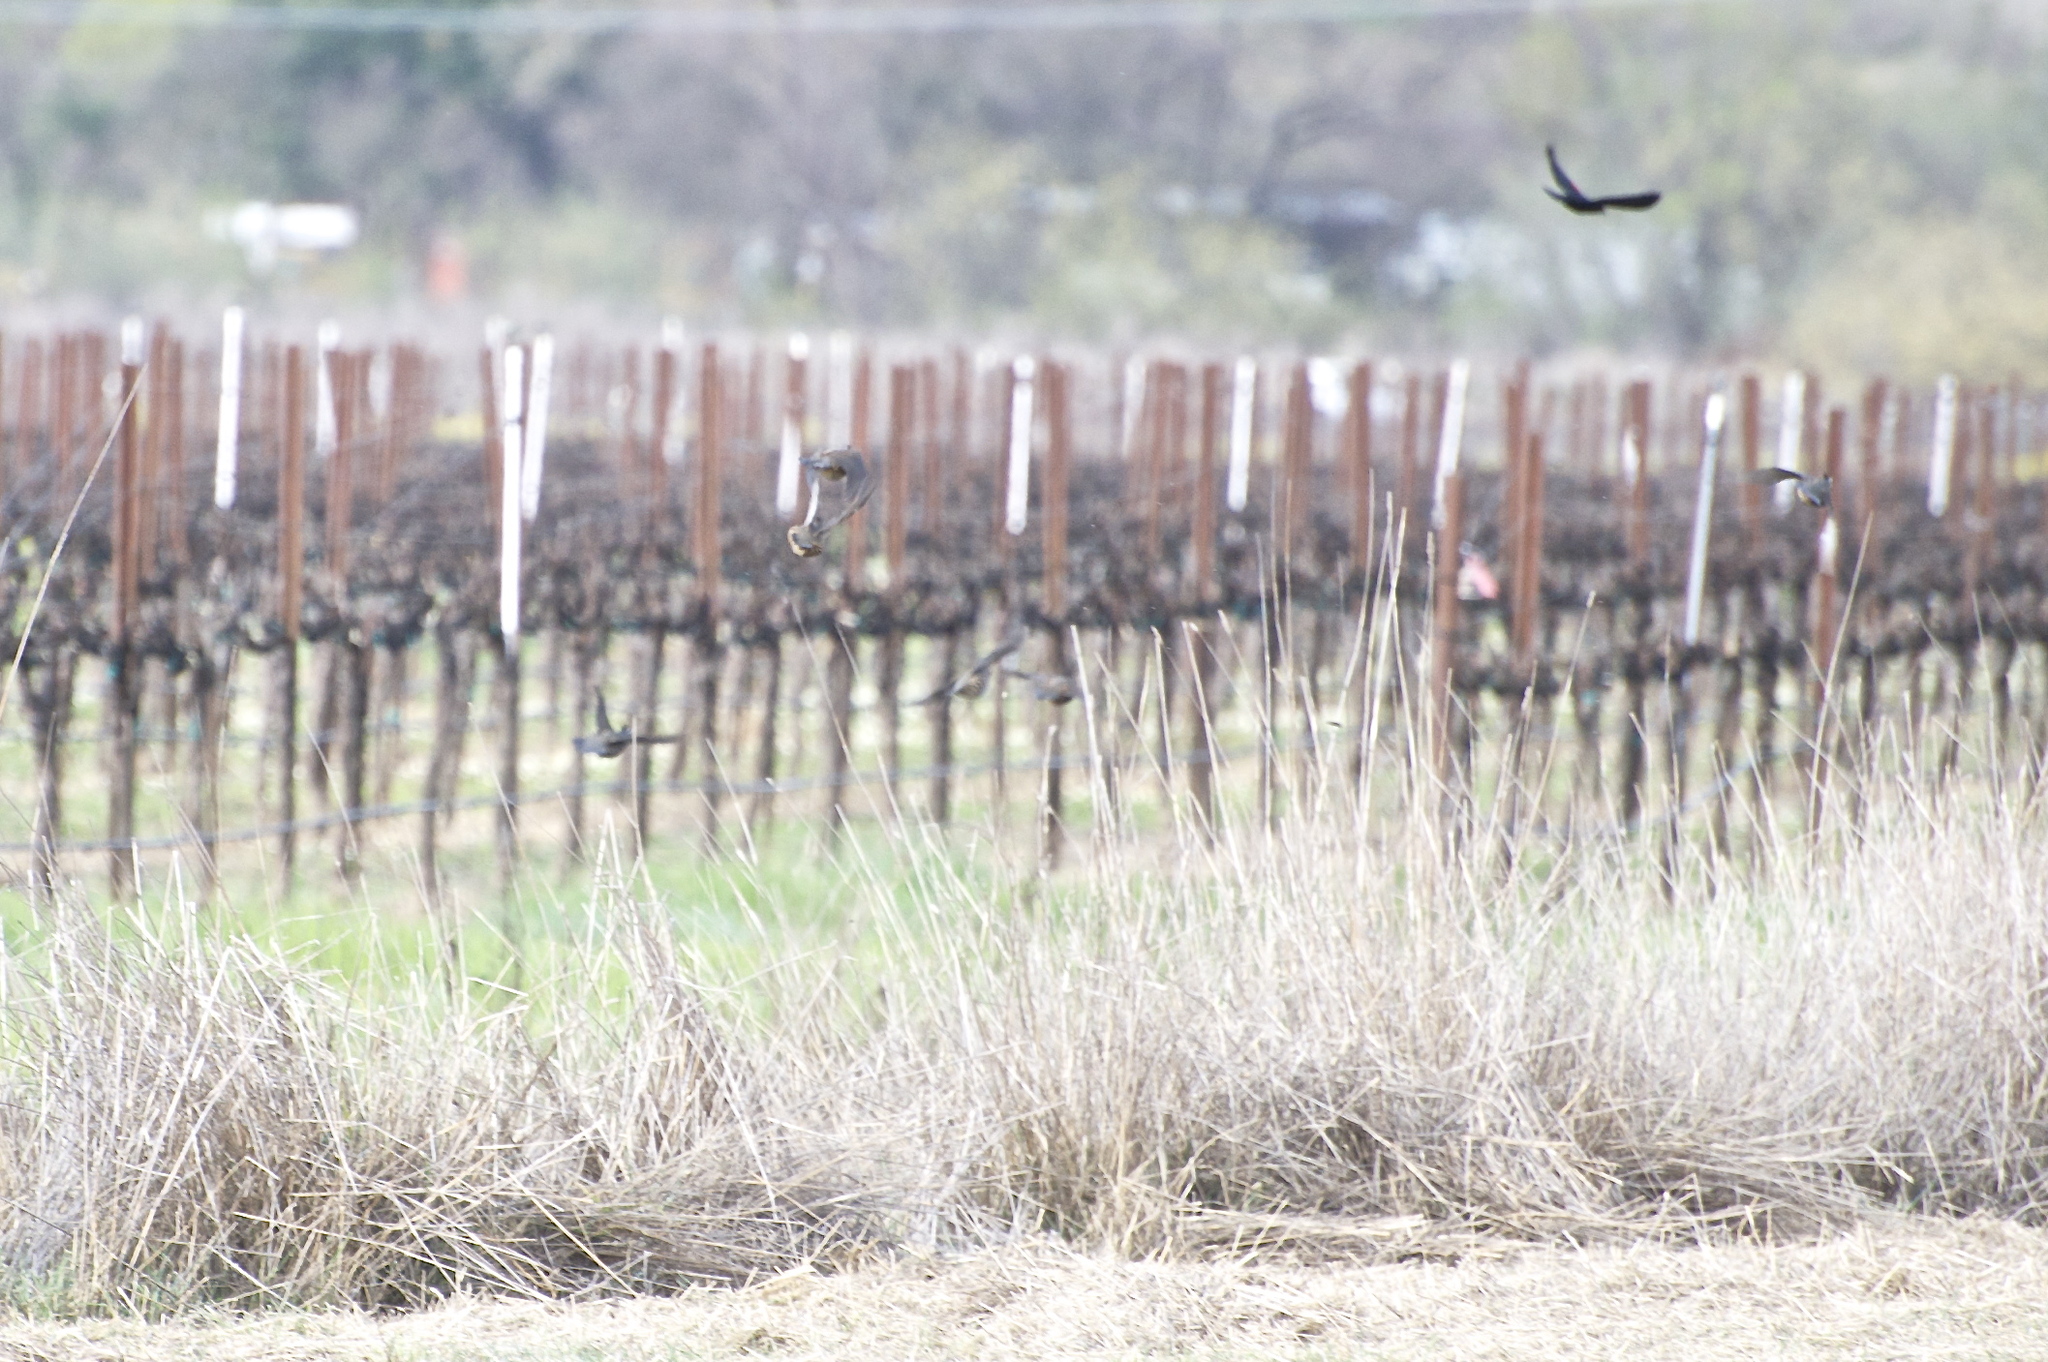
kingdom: Animalia
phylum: Chordata
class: Aves
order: Galliformes
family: Odontophoridae
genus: Callipepla
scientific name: Callipepla californica
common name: California quail
